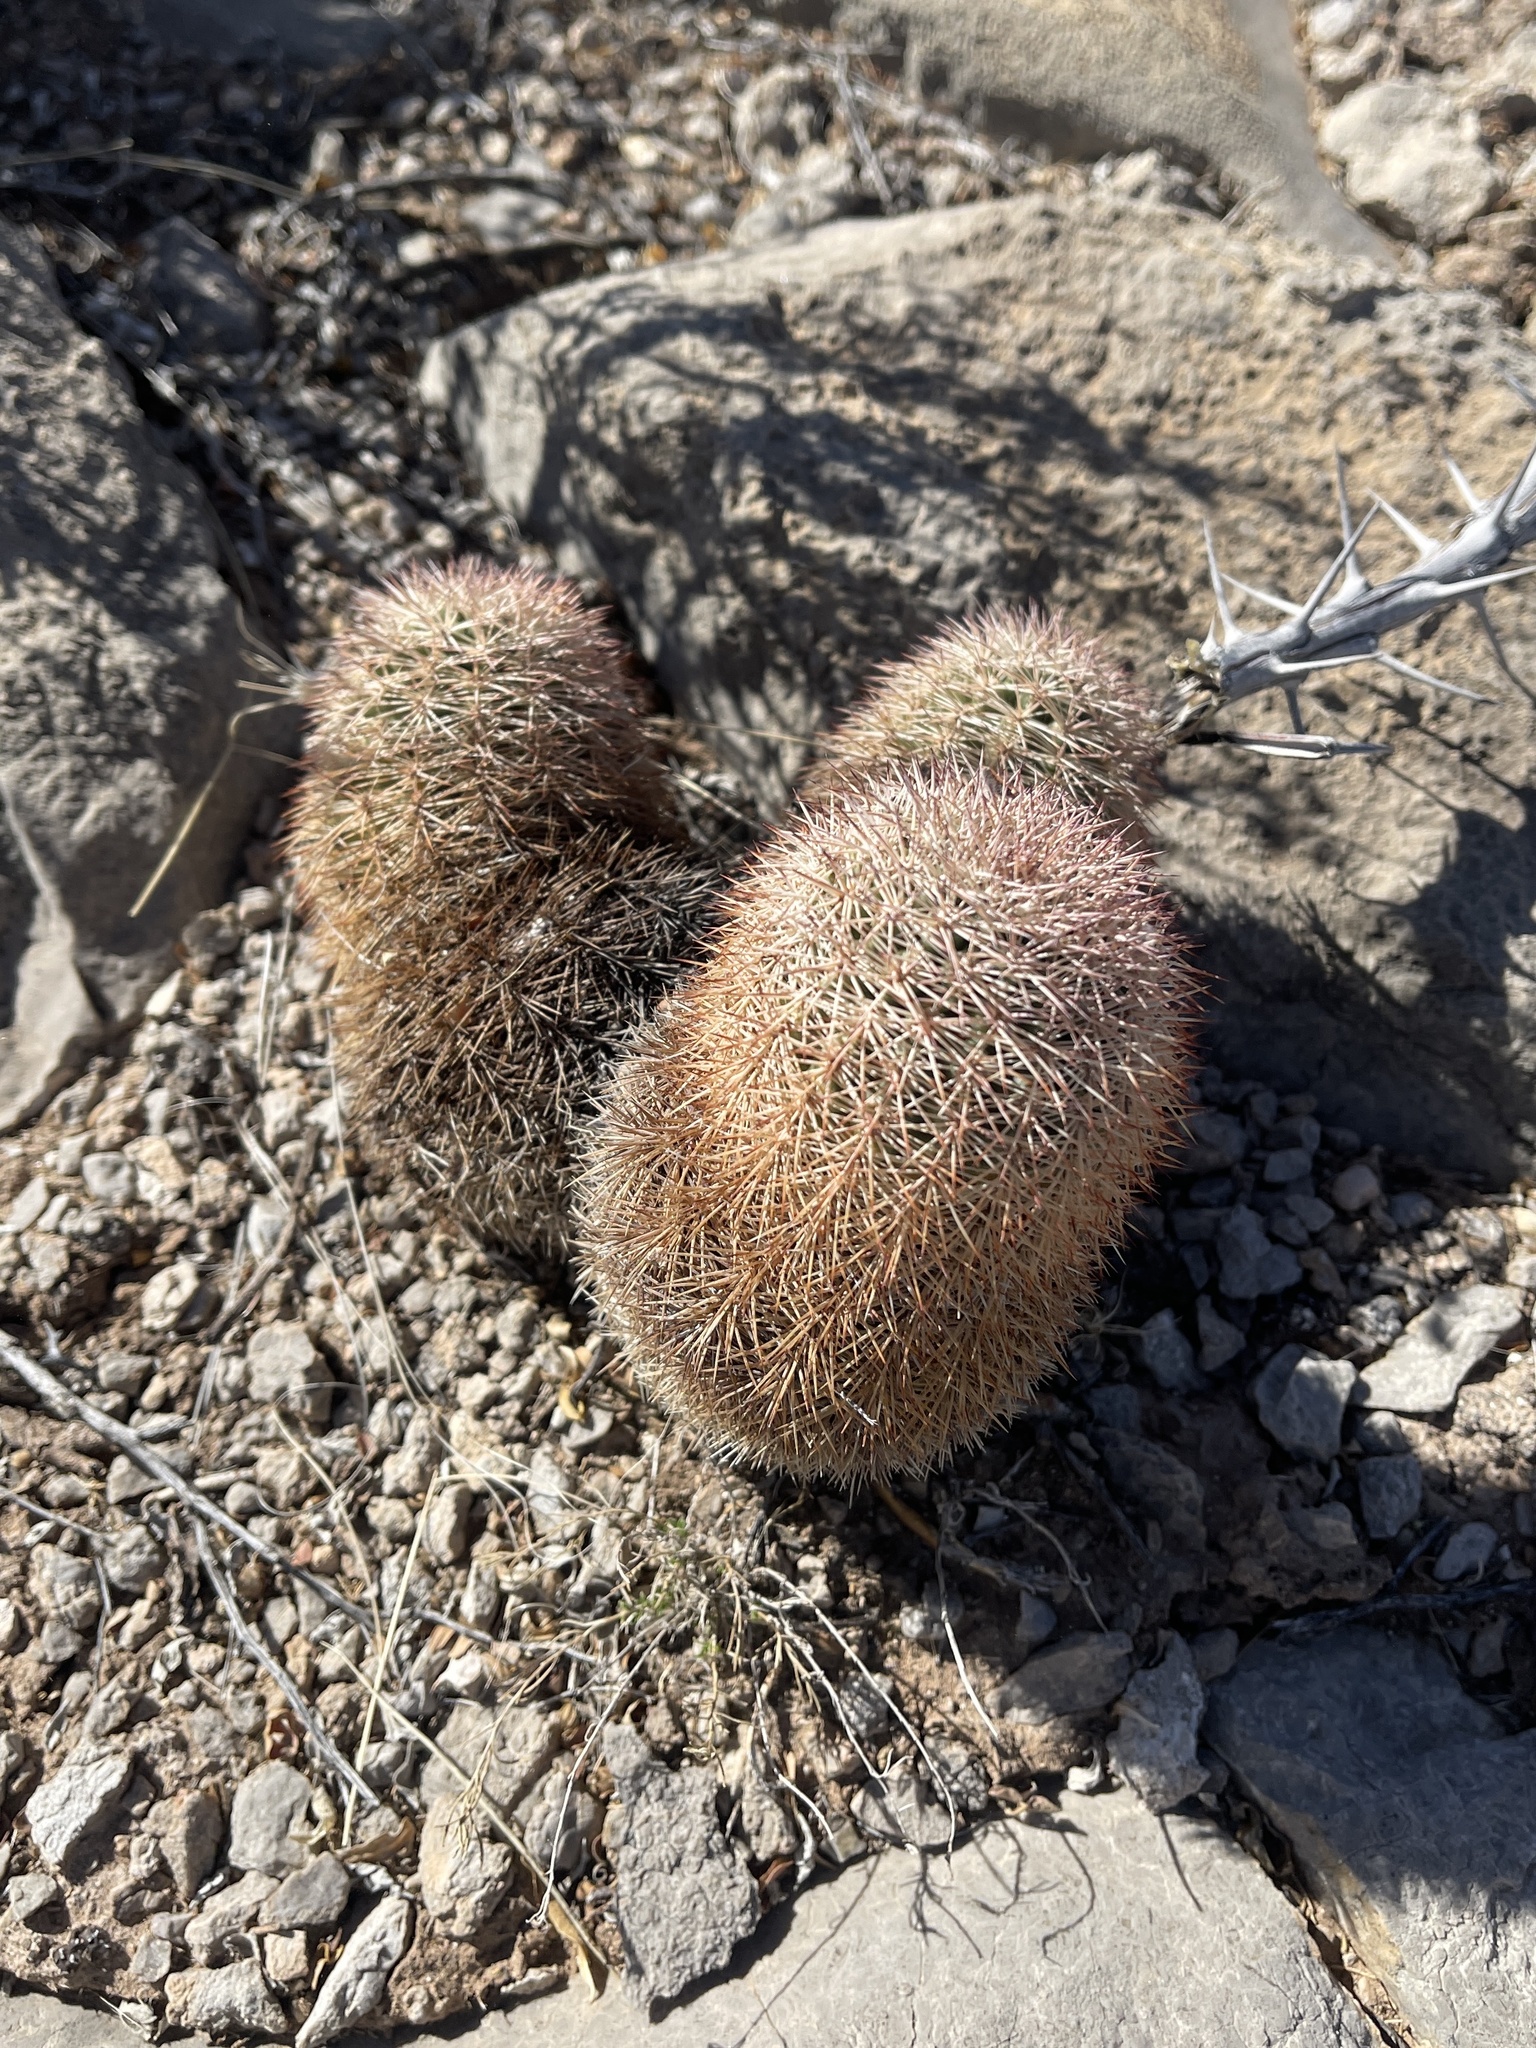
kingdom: Plantae
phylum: Tracheophyta
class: Magnoliopsida
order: Caryophyllales
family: Cactaceae
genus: Echinocereus
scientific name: Echinocereus dasyacanthus
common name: Spiny hedgehog cactus
